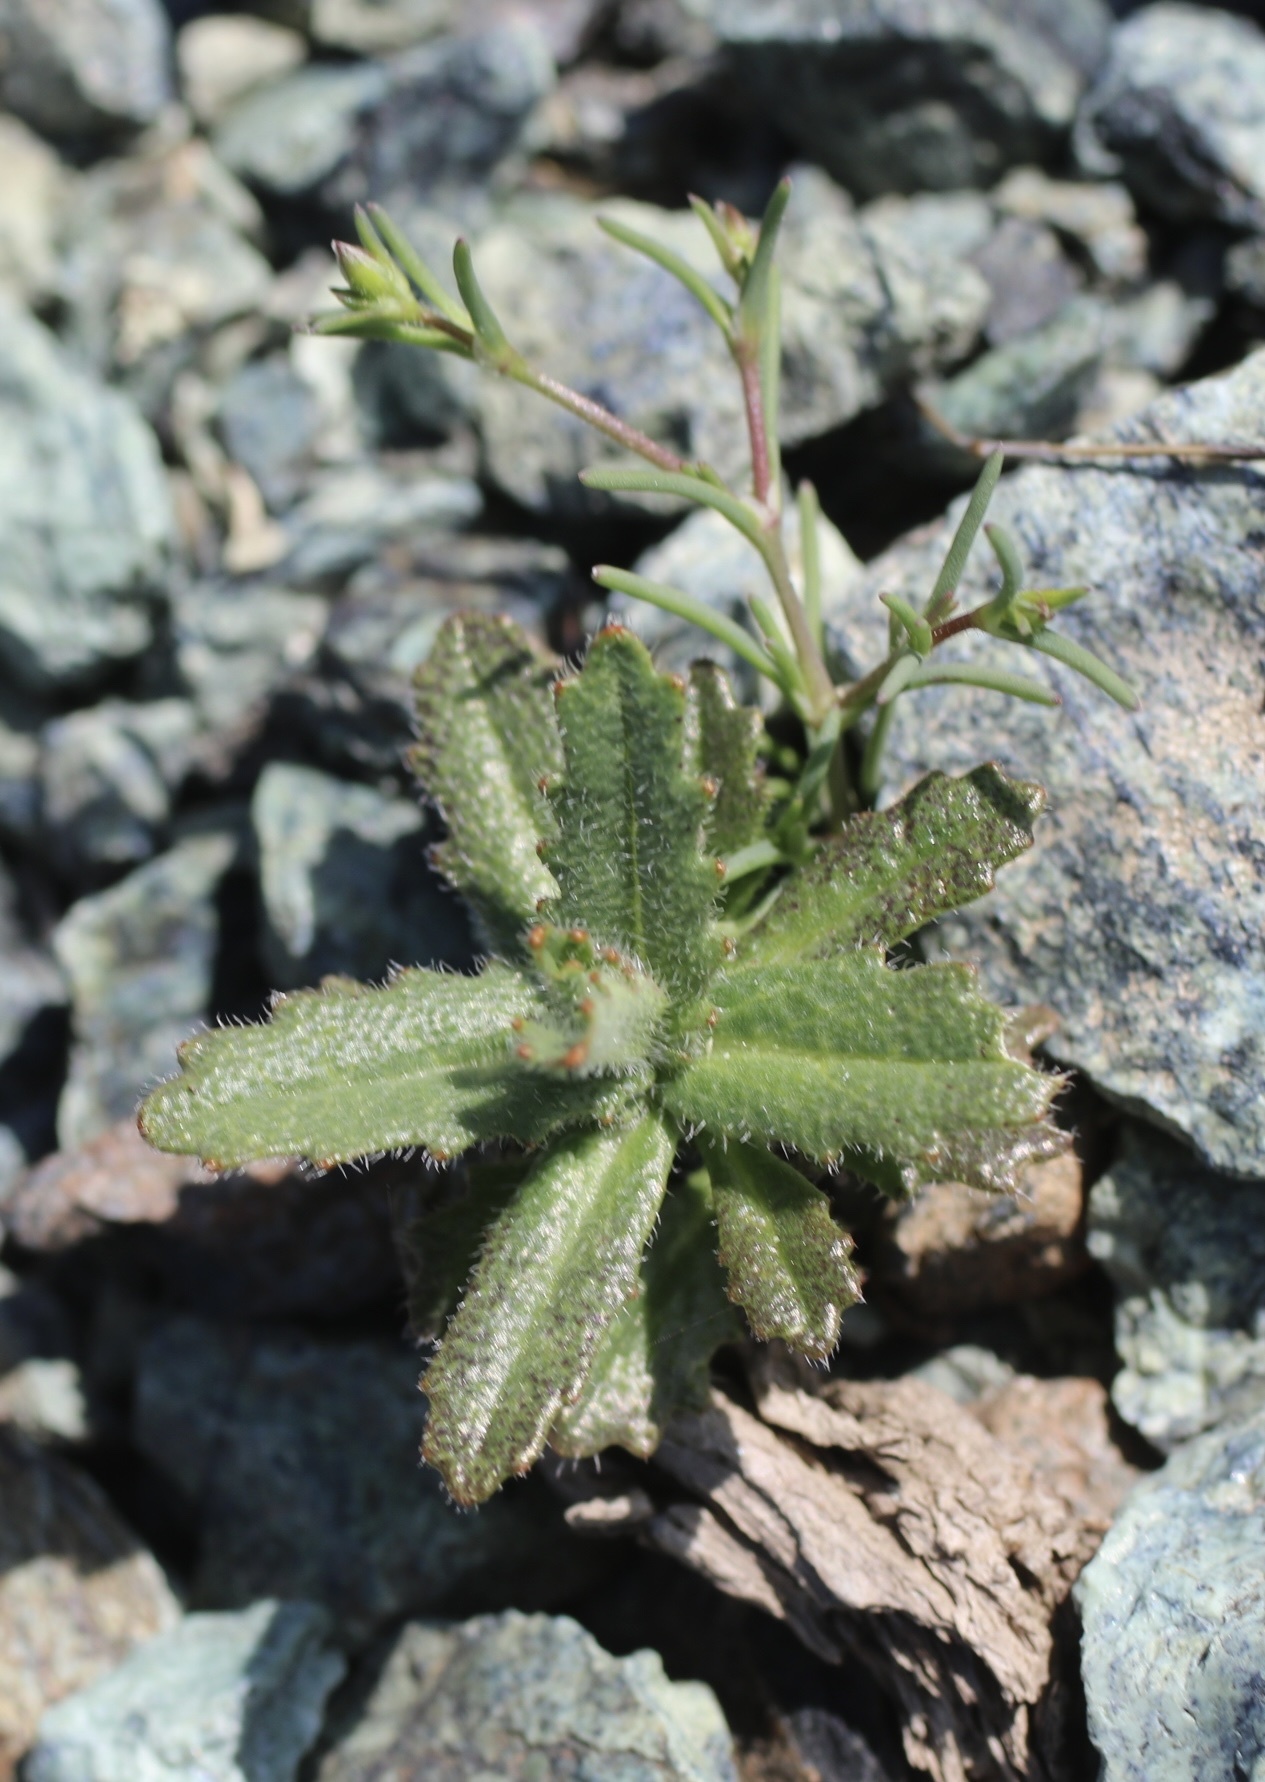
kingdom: Plantae
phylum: Tracheophyta
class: Magnoliopsida
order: Brassicales
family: Brassicaceae
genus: Streptanthus
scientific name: Streptanthus glandulosus
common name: Jewel-flower
